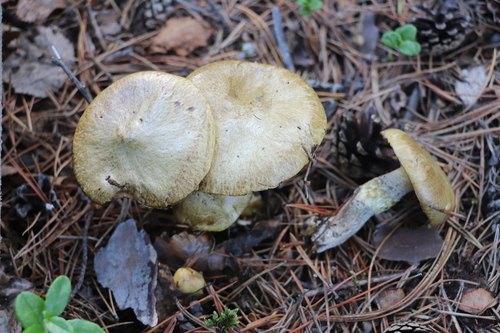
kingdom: Fungi
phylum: Basidiomycota
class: Agaricomycetes
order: Boletales
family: Suillaceae
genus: Suillus
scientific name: Suillus acidus
